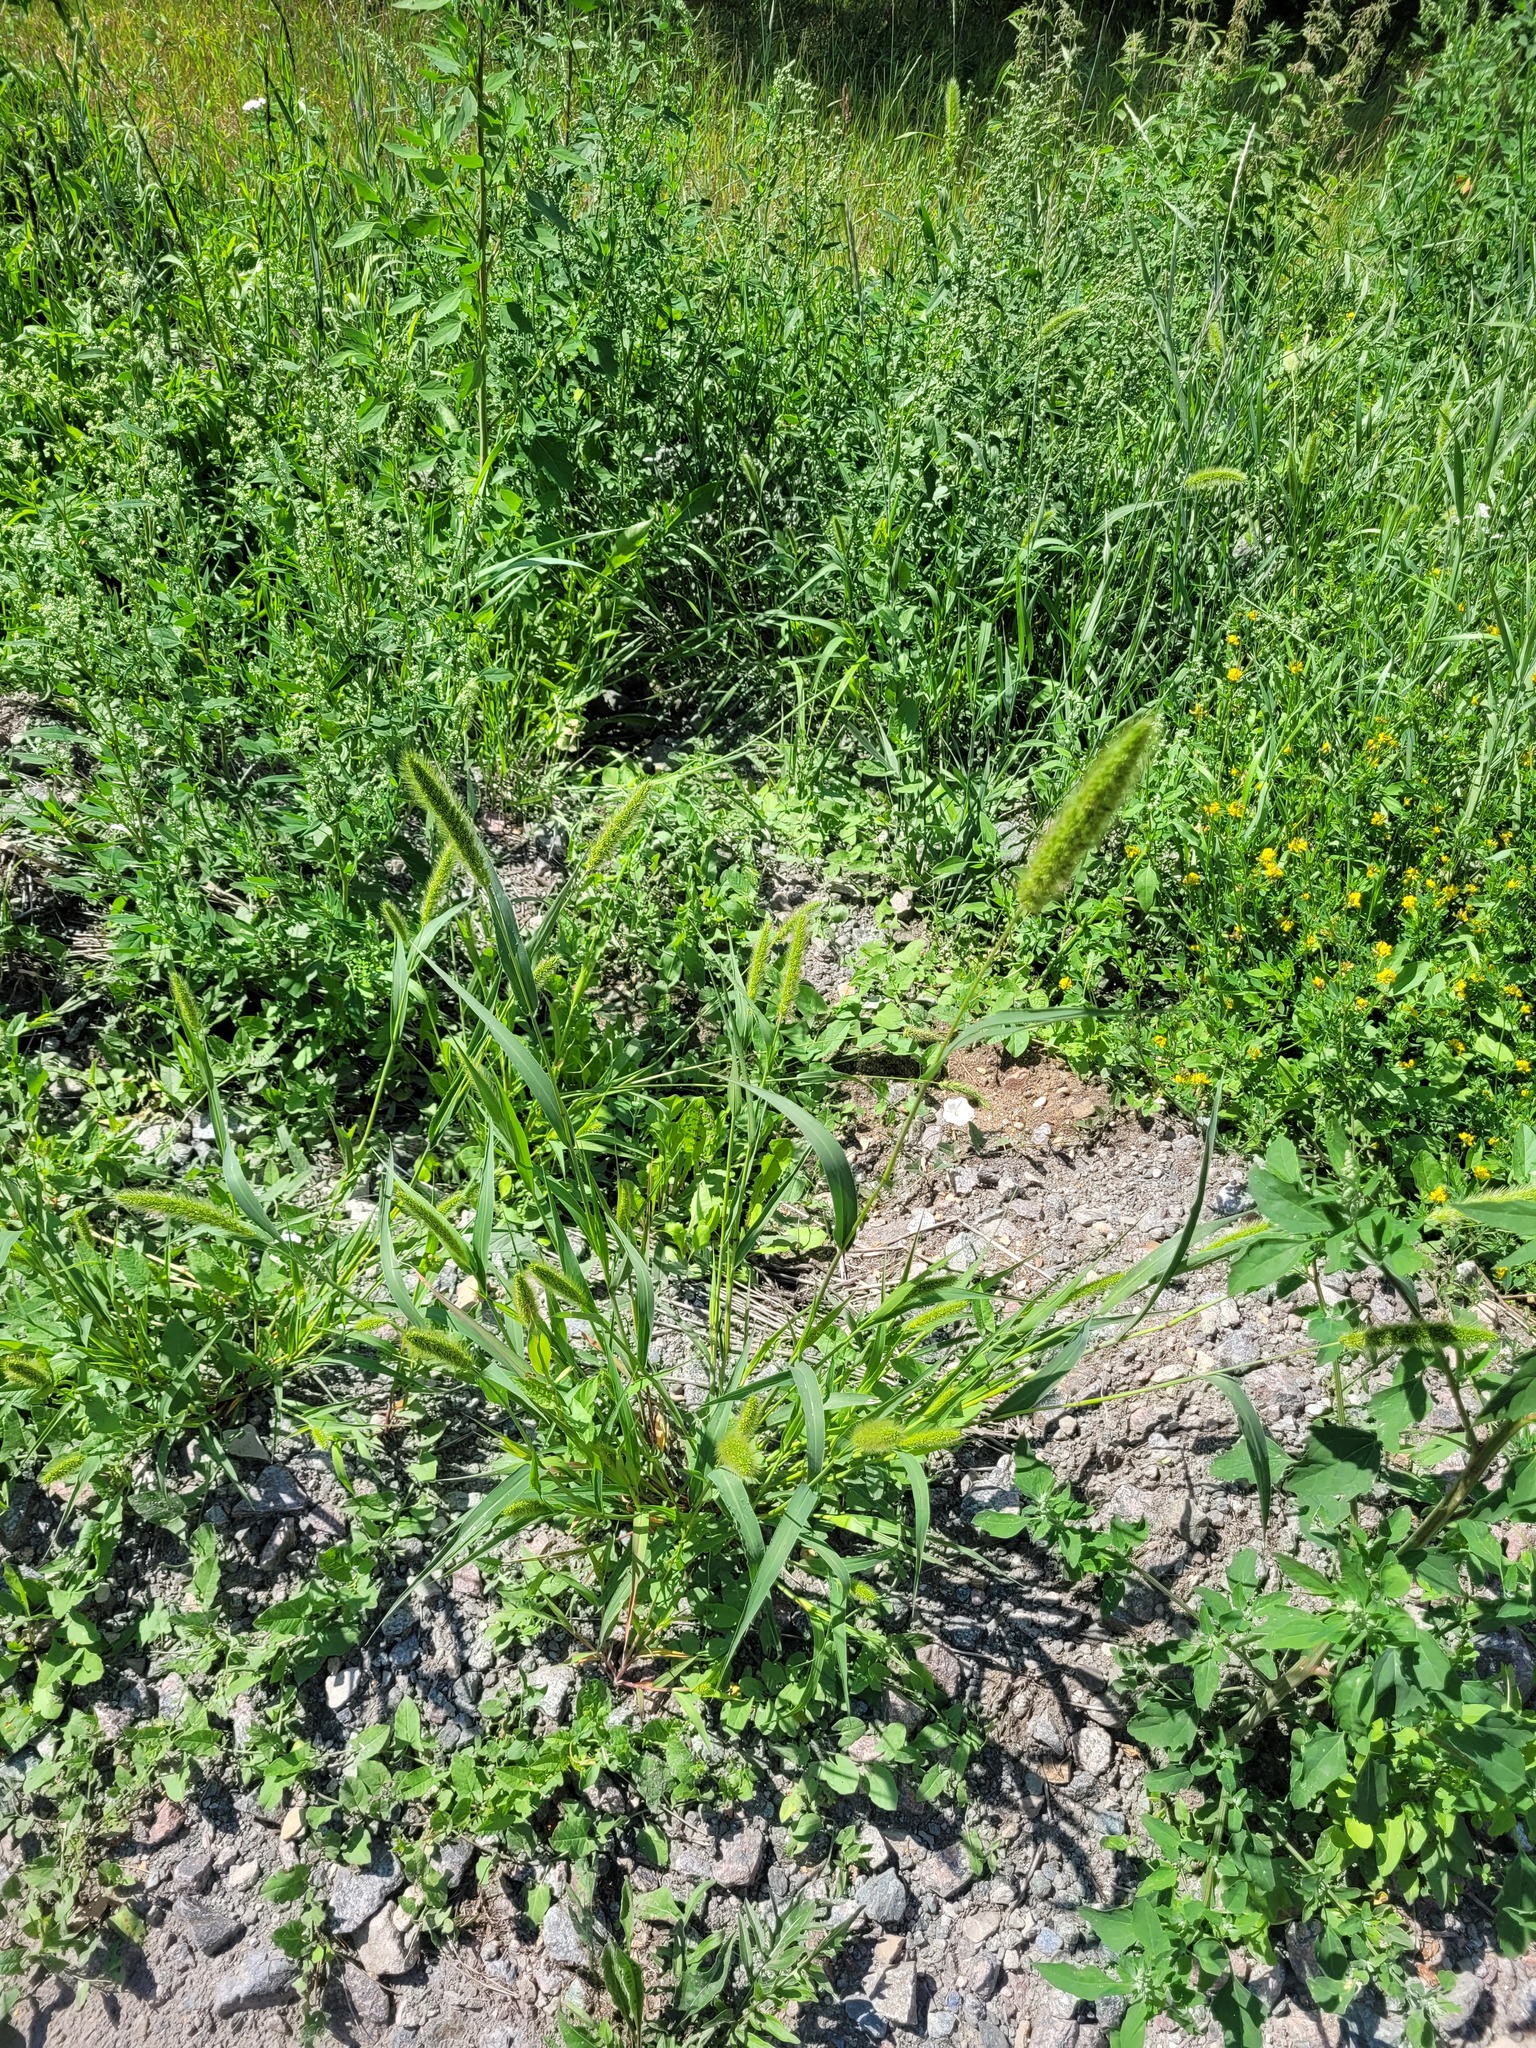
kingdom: Plantae
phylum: Tracheophyta
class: Liliopsida
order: Poales
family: Poaceae
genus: Setaria
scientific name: Setaria viridis
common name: Green bristlegrass
